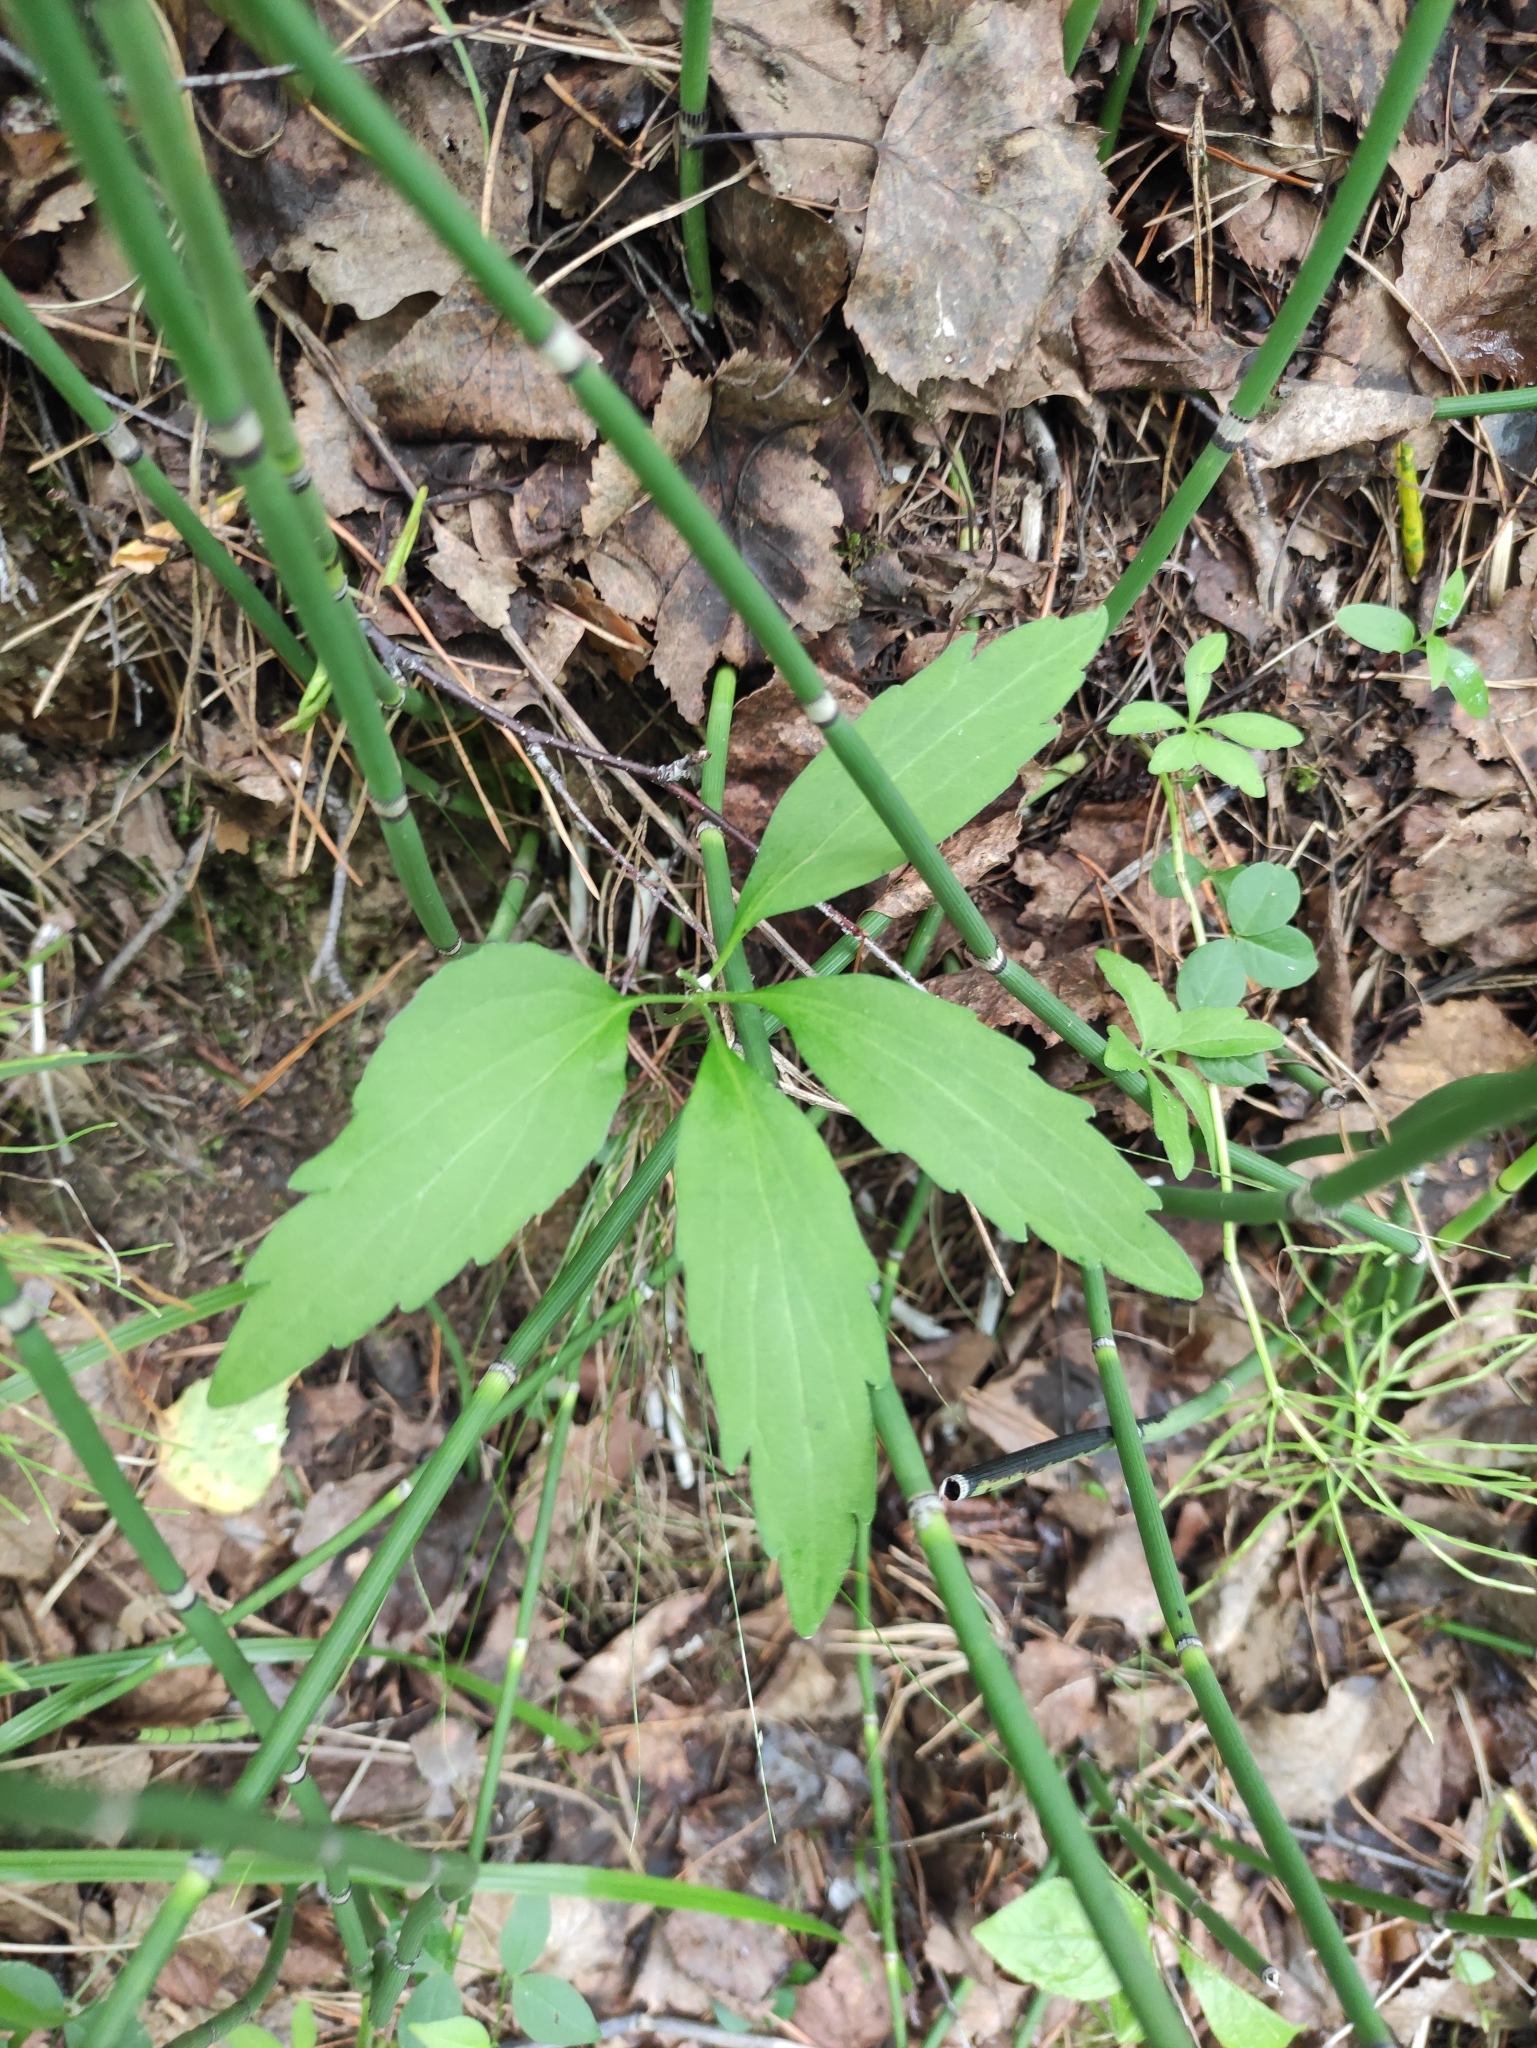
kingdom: Plantae
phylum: Tracheophyta
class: Magnoliopsida
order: Malpighiales
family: Violaceae
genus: Viola
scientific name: Viola dactyloides
